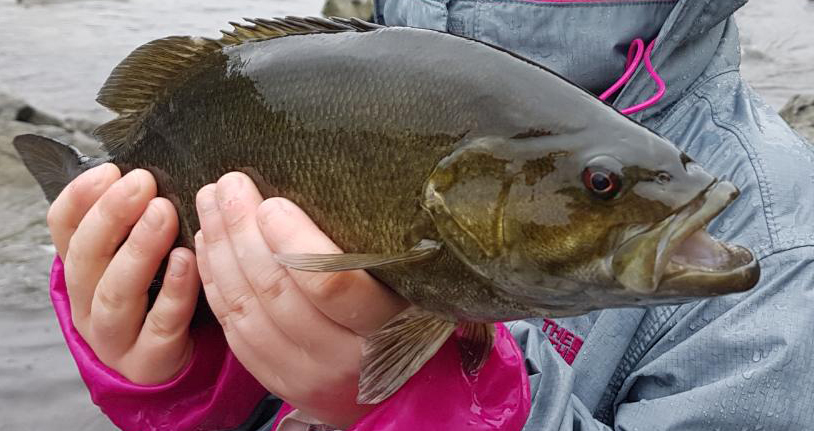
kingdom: Animalia
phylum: Chordata
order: Perciformes
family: Centrarchidae
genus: Micropterus
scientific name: Micropterus dolomieu
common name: Smallmouth bass
